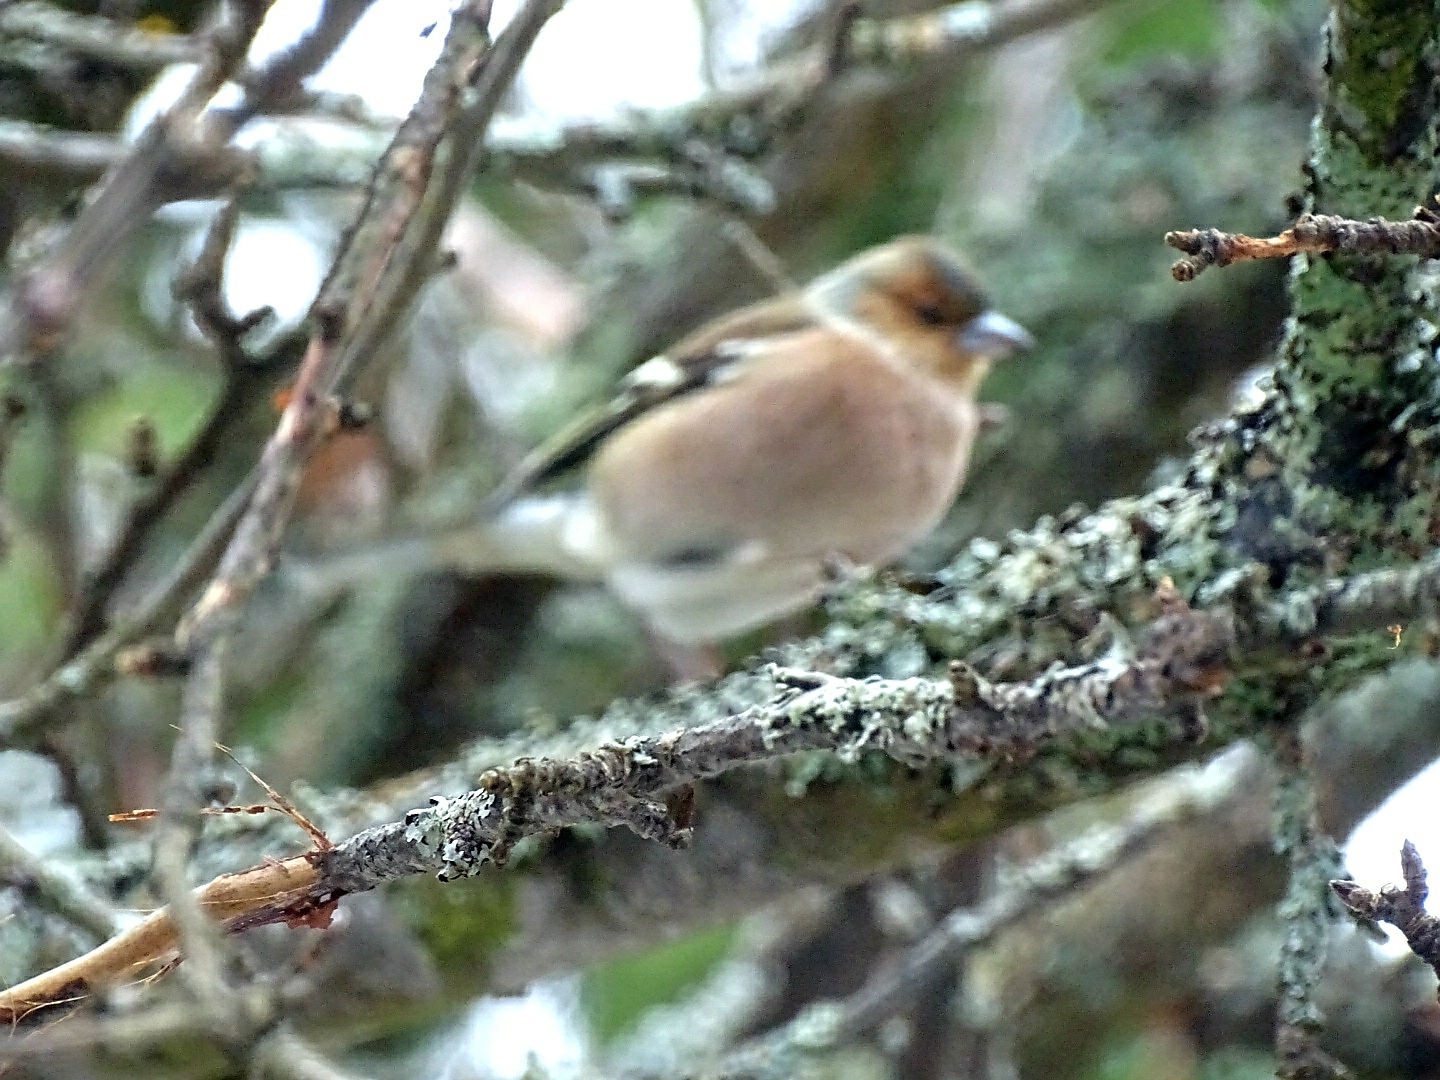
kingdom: Animalia
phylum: Chordata
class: Aves
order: Passeriformes
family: Fringillidae
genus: Fringilla
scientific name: Fringilla coelebs
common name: Common chaffinch
